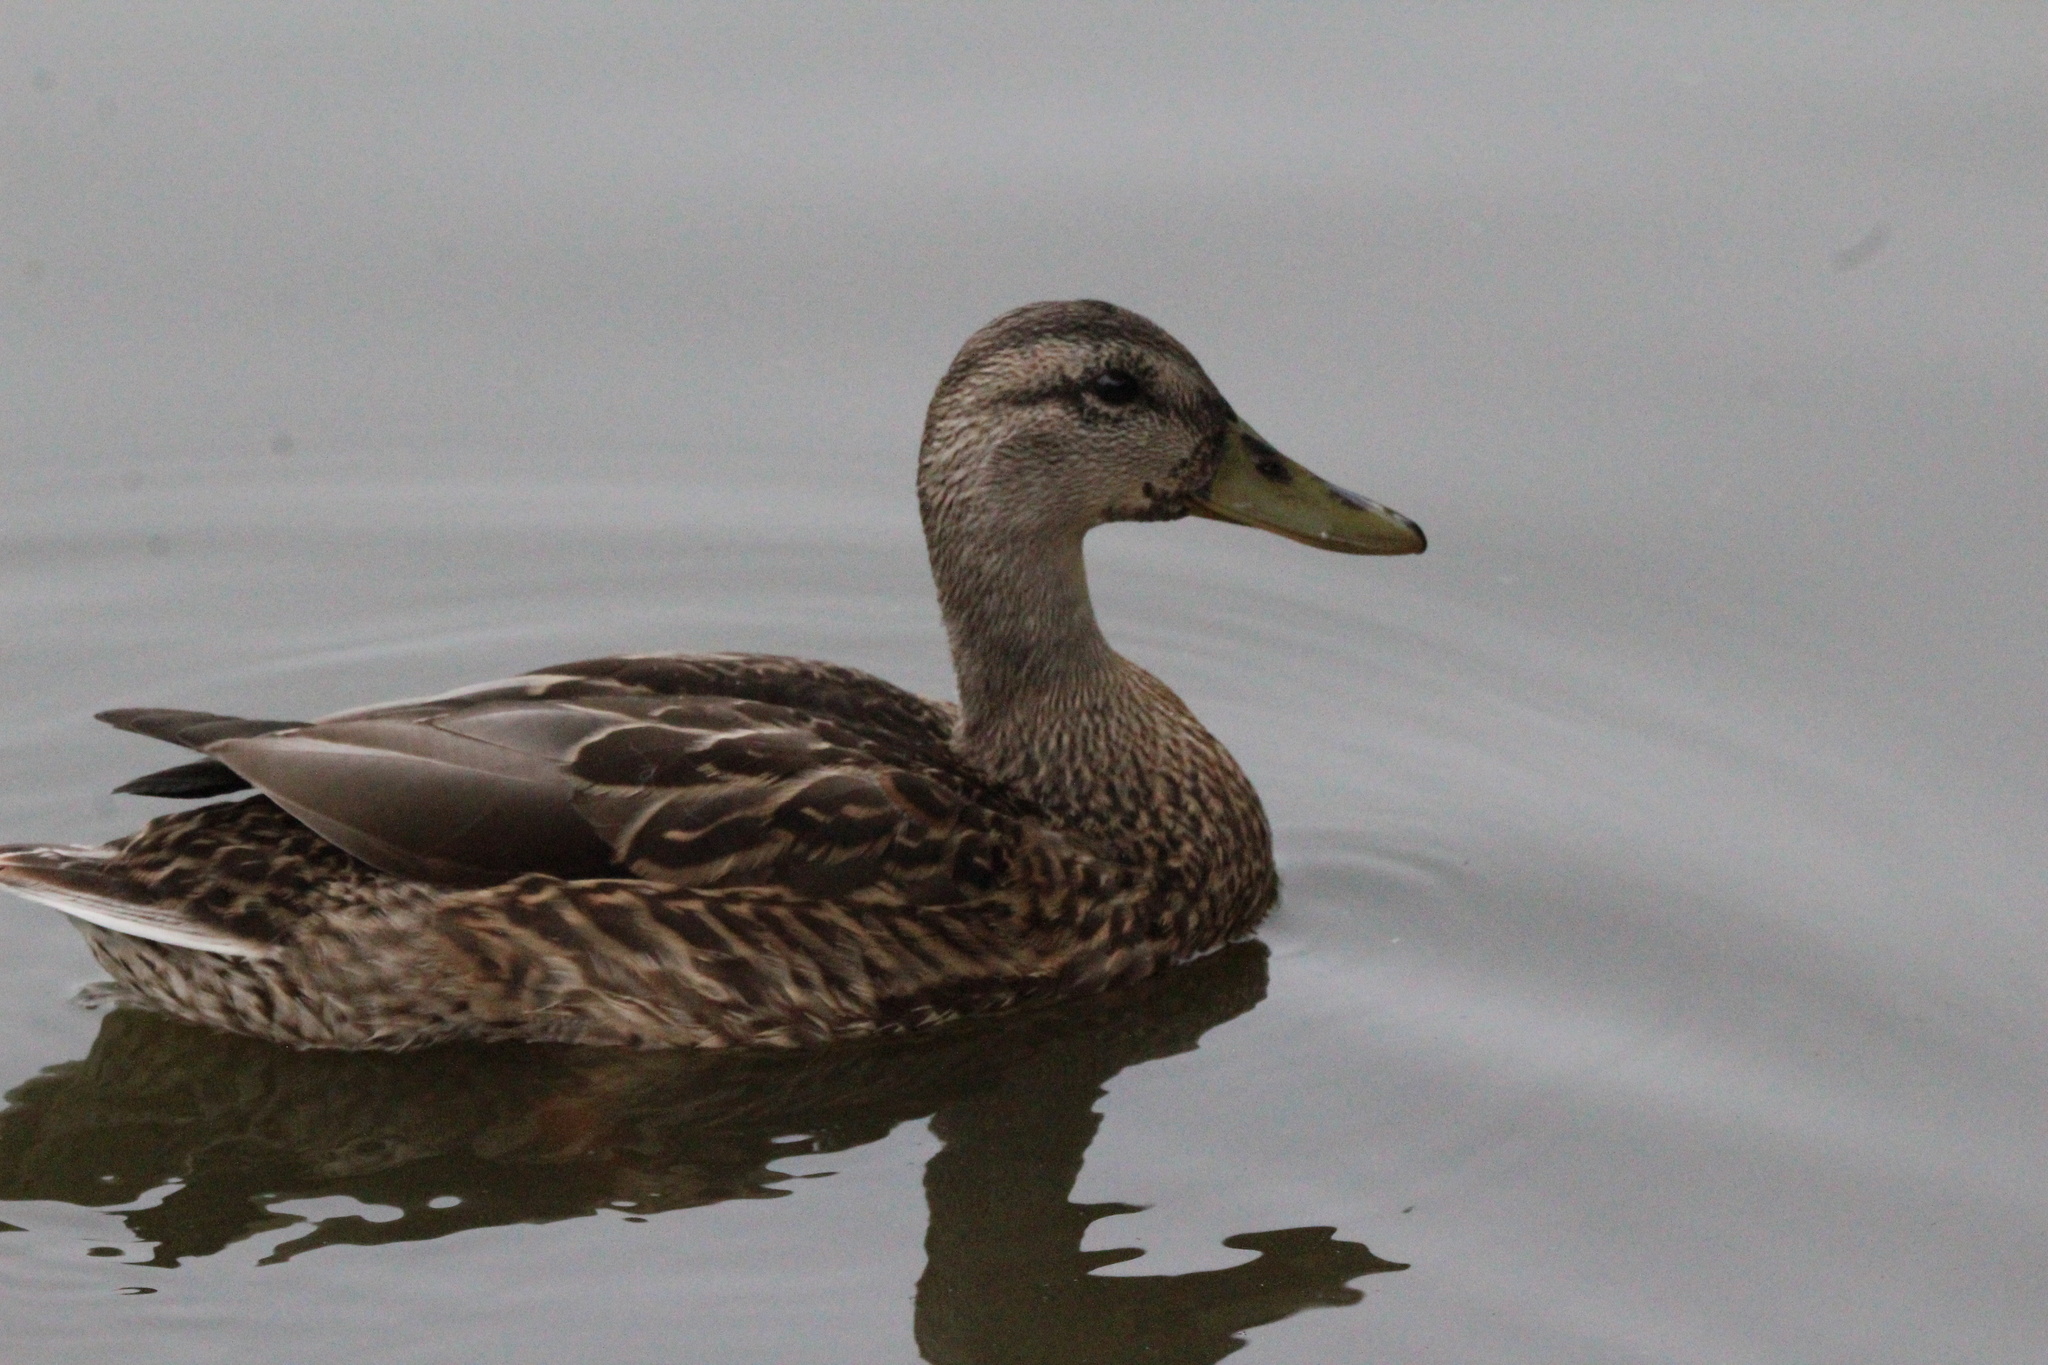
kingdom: Animalia
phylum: Chordata
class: Aves
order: Anseriformes
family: Anatidae
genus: Anas
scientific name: Anas platyrhynchos
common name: Mallard
